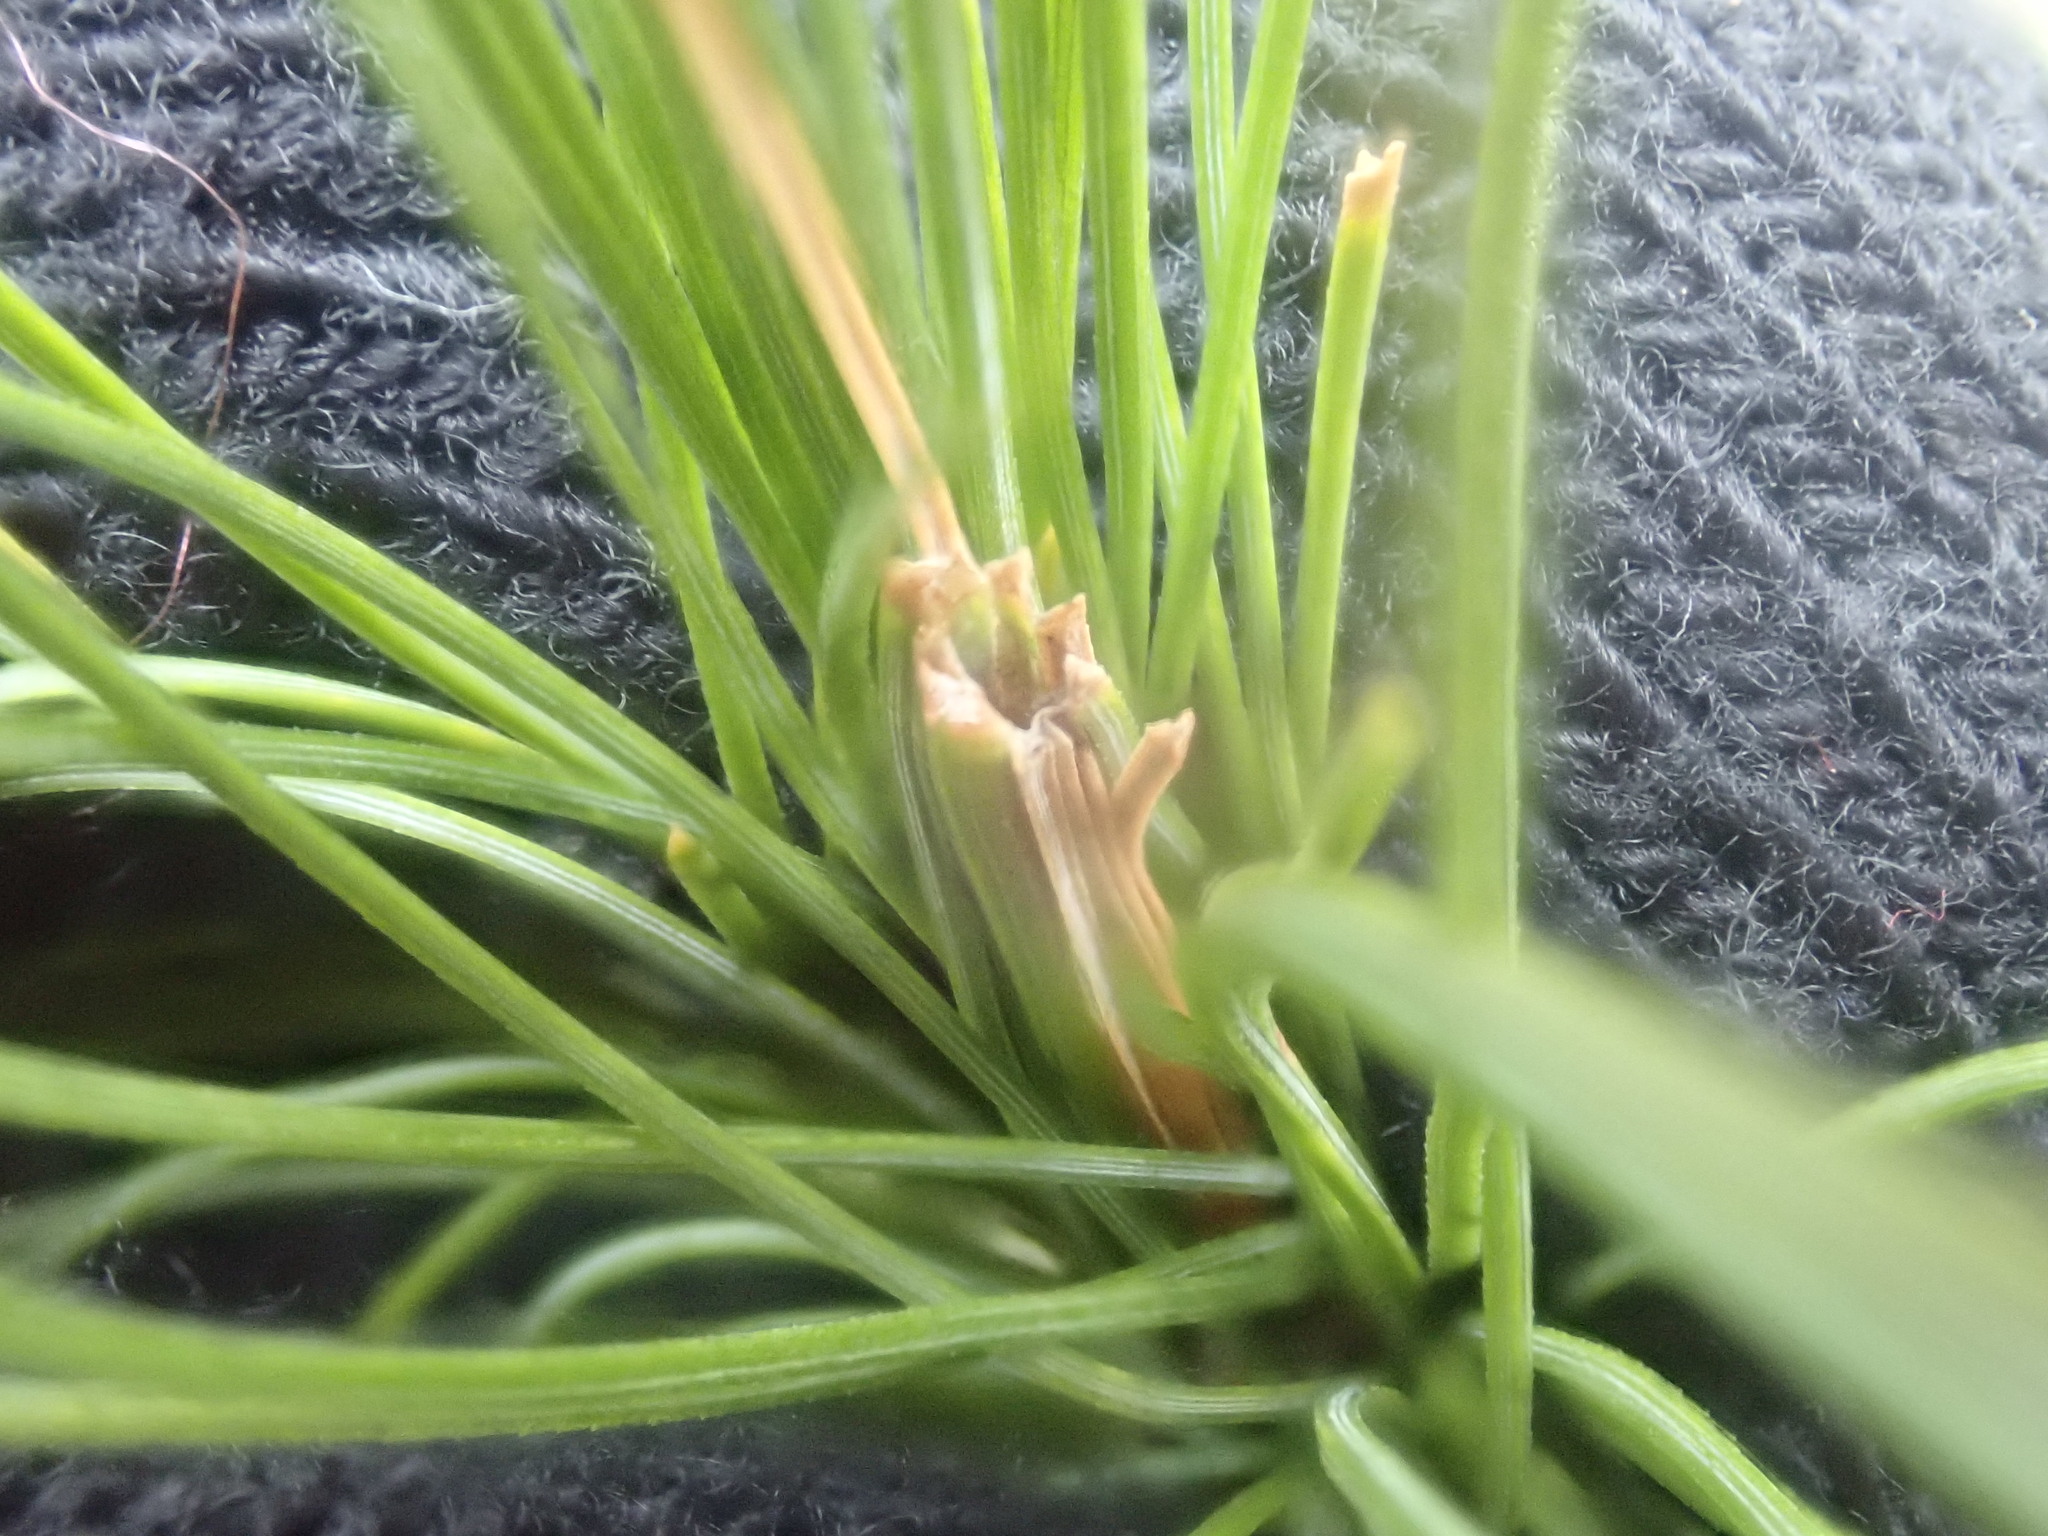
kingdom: Animalia
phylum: Arthropoda
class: Insecta
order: Lepidoptera
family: Tortricidae
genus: Argyrotaenia
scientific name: Argyrotaenia pinatubana
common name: Pine tube moth
